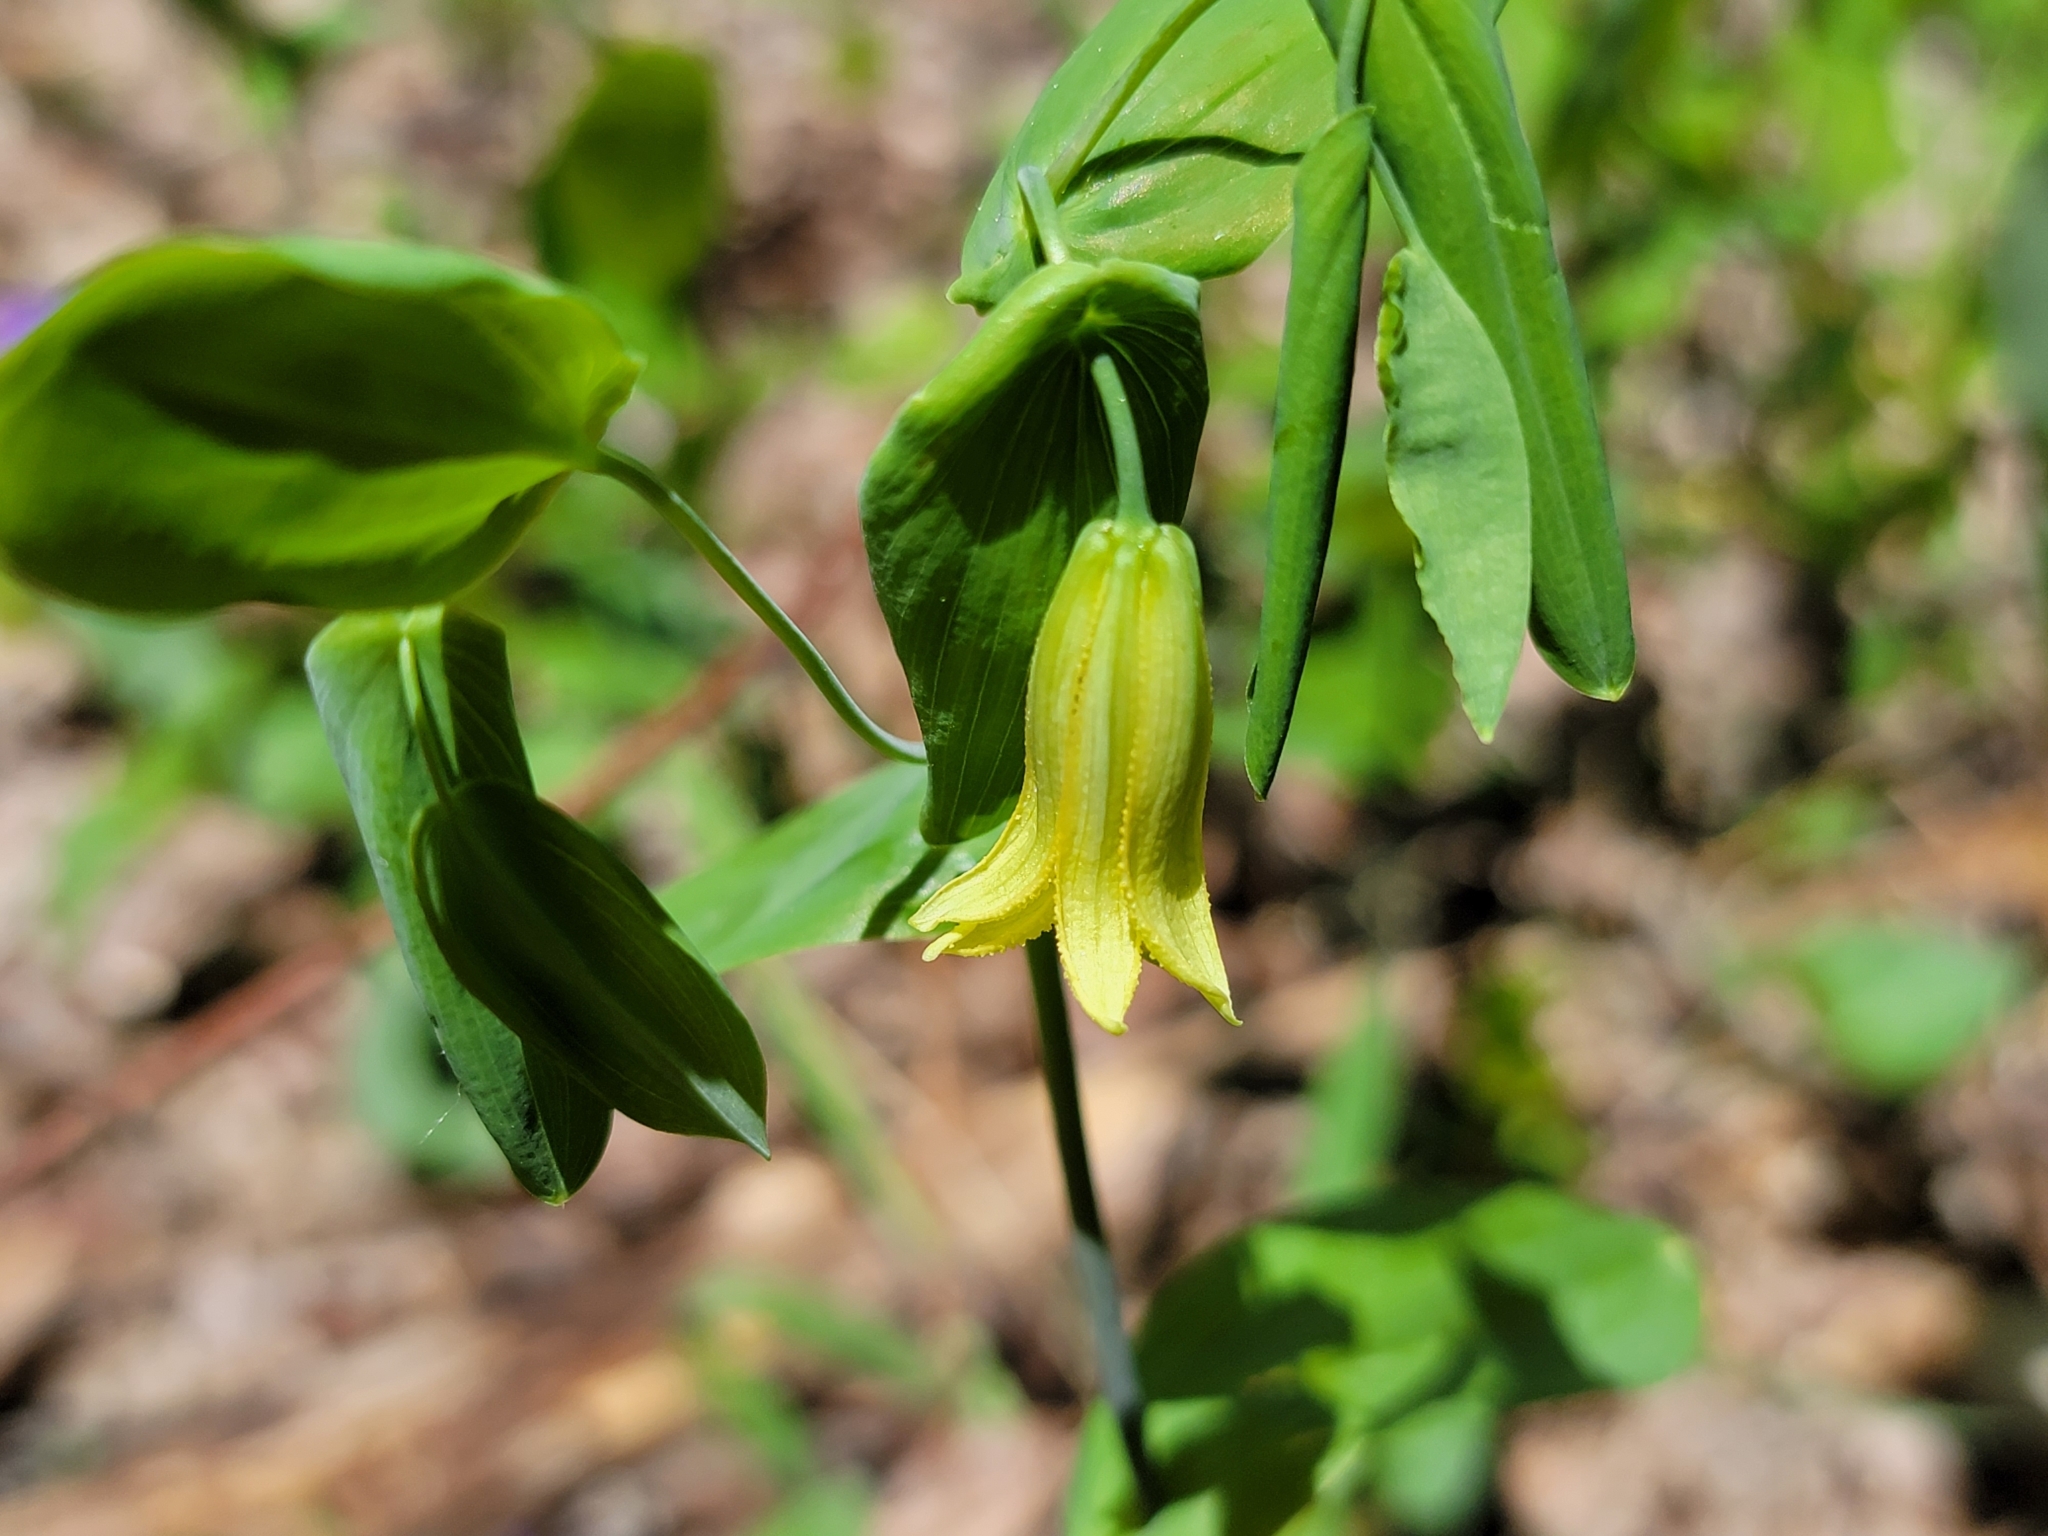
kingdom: Plantae
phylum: Tracheophyta
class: Liliopsida
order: Liliales
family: Colchicaceae
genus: Uvularia
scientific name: Uvularia perfoliata
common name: Perfoliate bellwort
